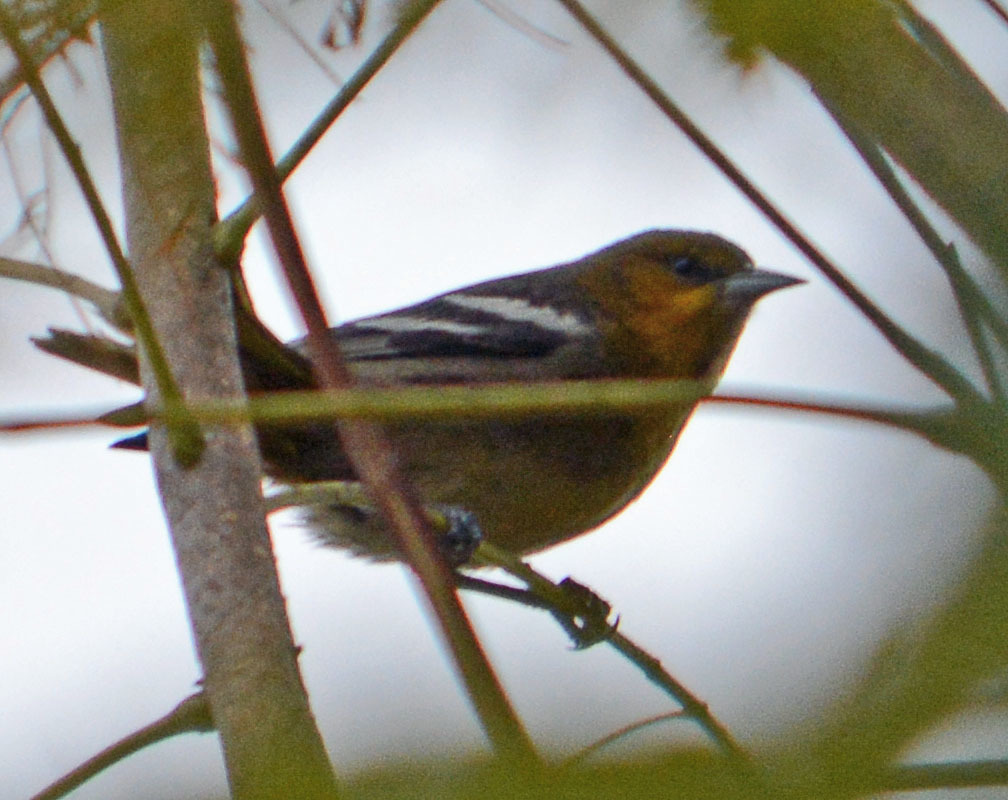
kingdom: Animalia
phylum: Chordata
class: Aves
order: Passeriformes
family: Icteridae
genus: Icterus
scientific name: Icterus bullockii
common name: Bullock's oriole
